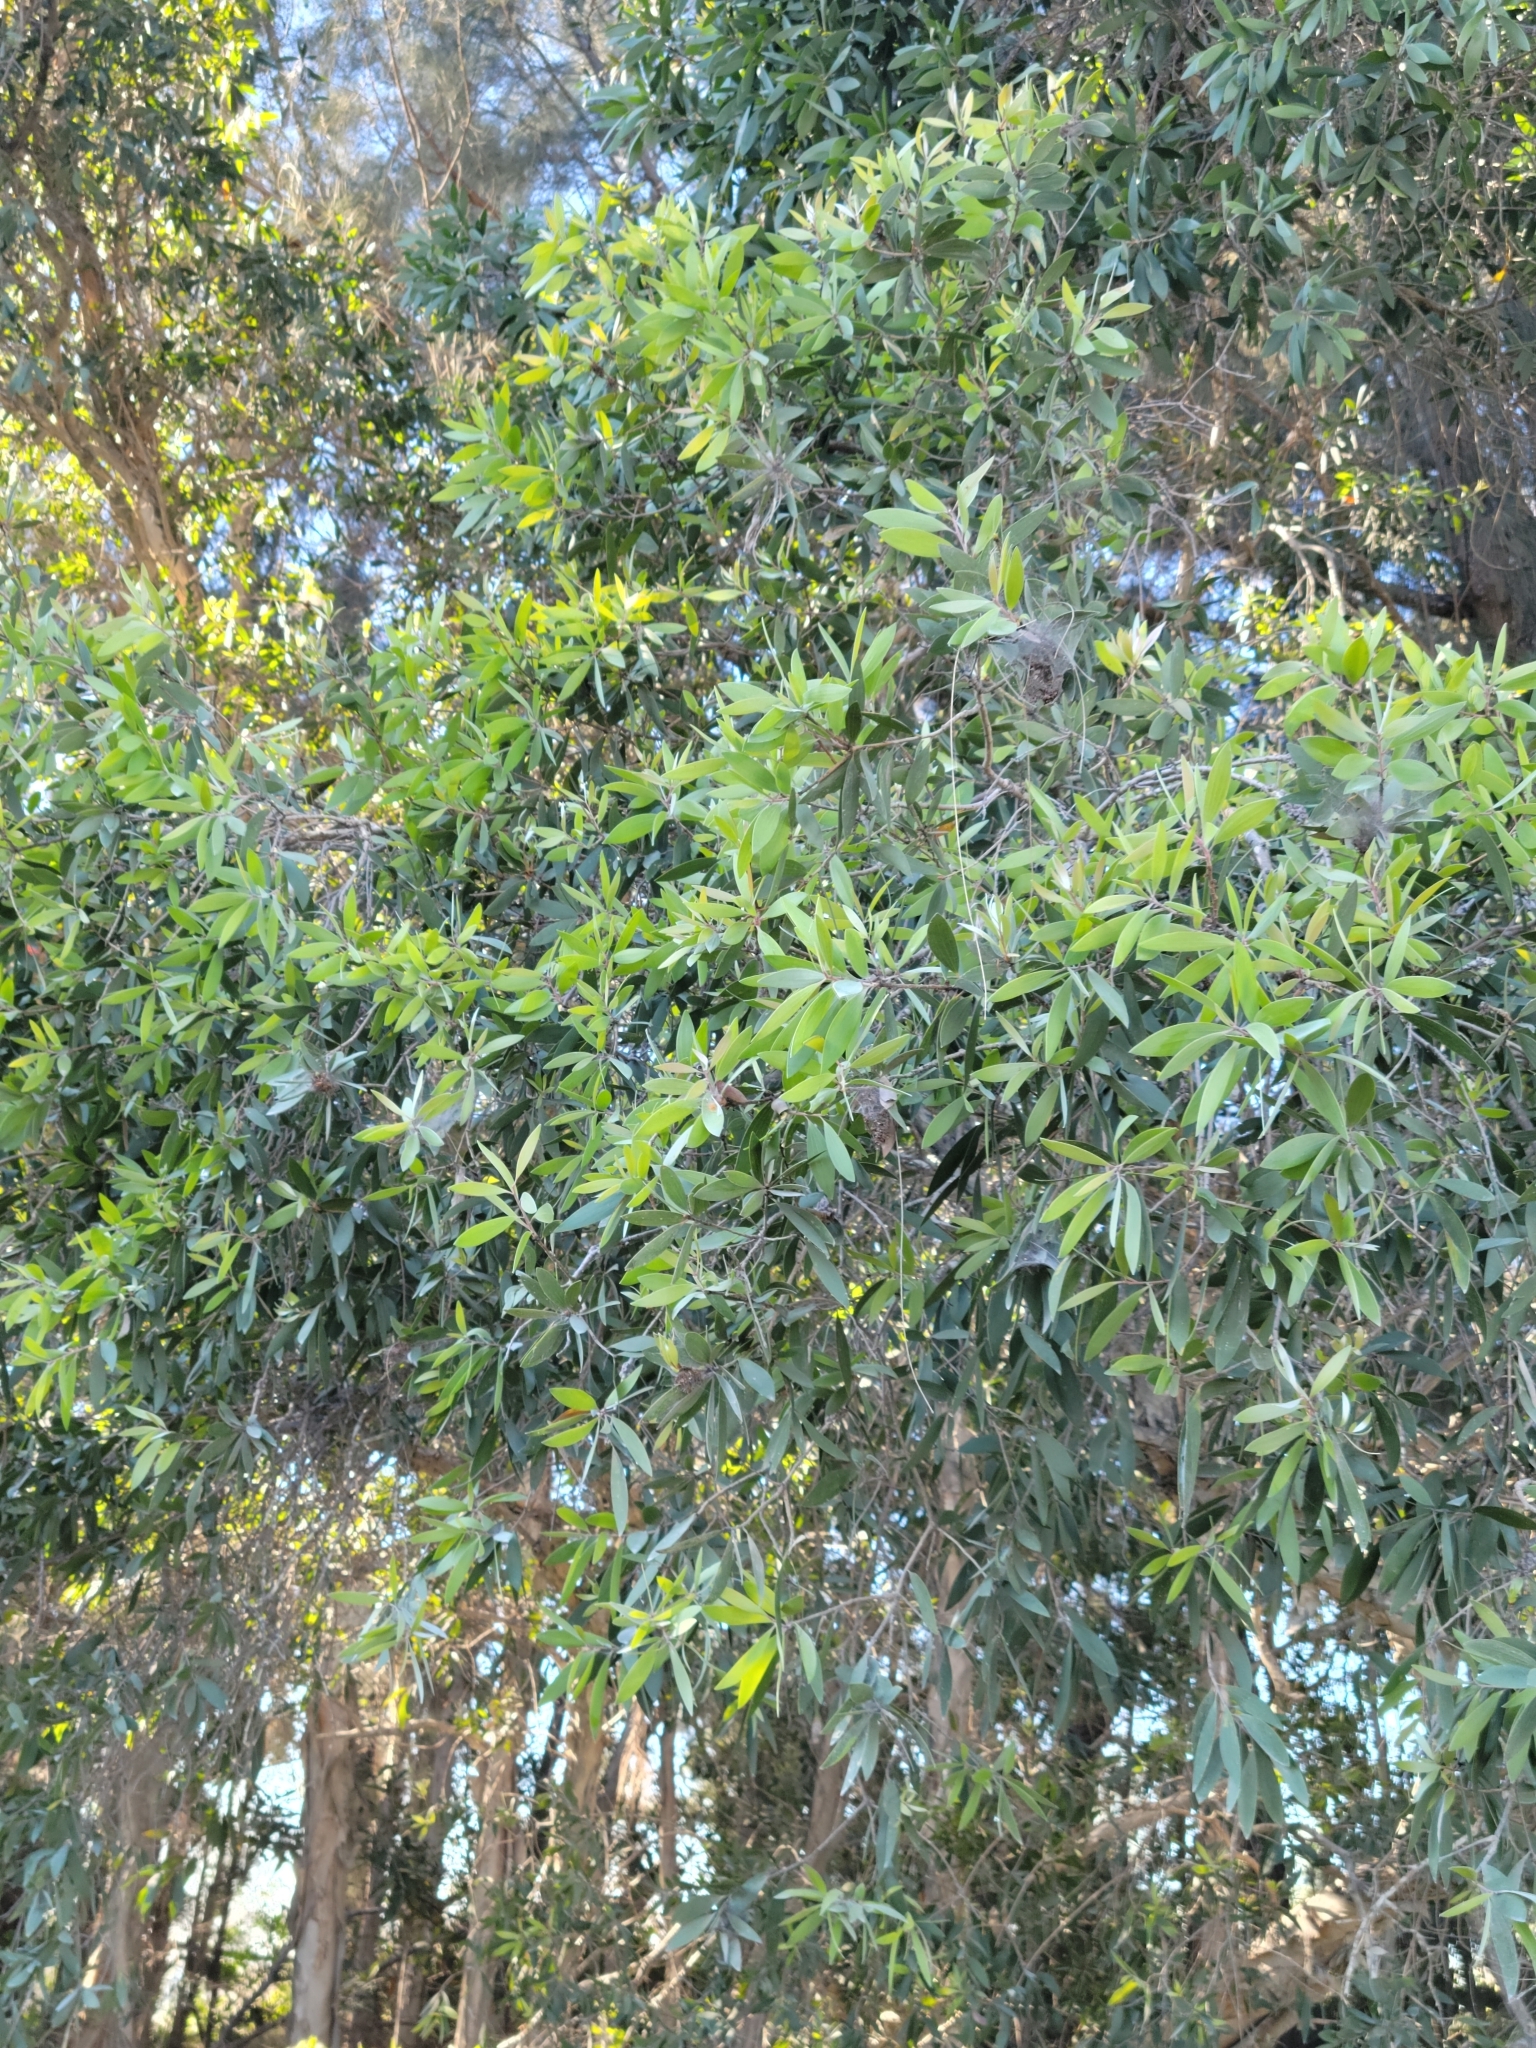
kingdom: Plantae
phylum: Tracheophyta
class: Magnoliopsida
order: Myrtales
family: Myrtaceae
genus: Melaleuca
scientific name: Melaleuca quinquenervia
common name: Punktree
